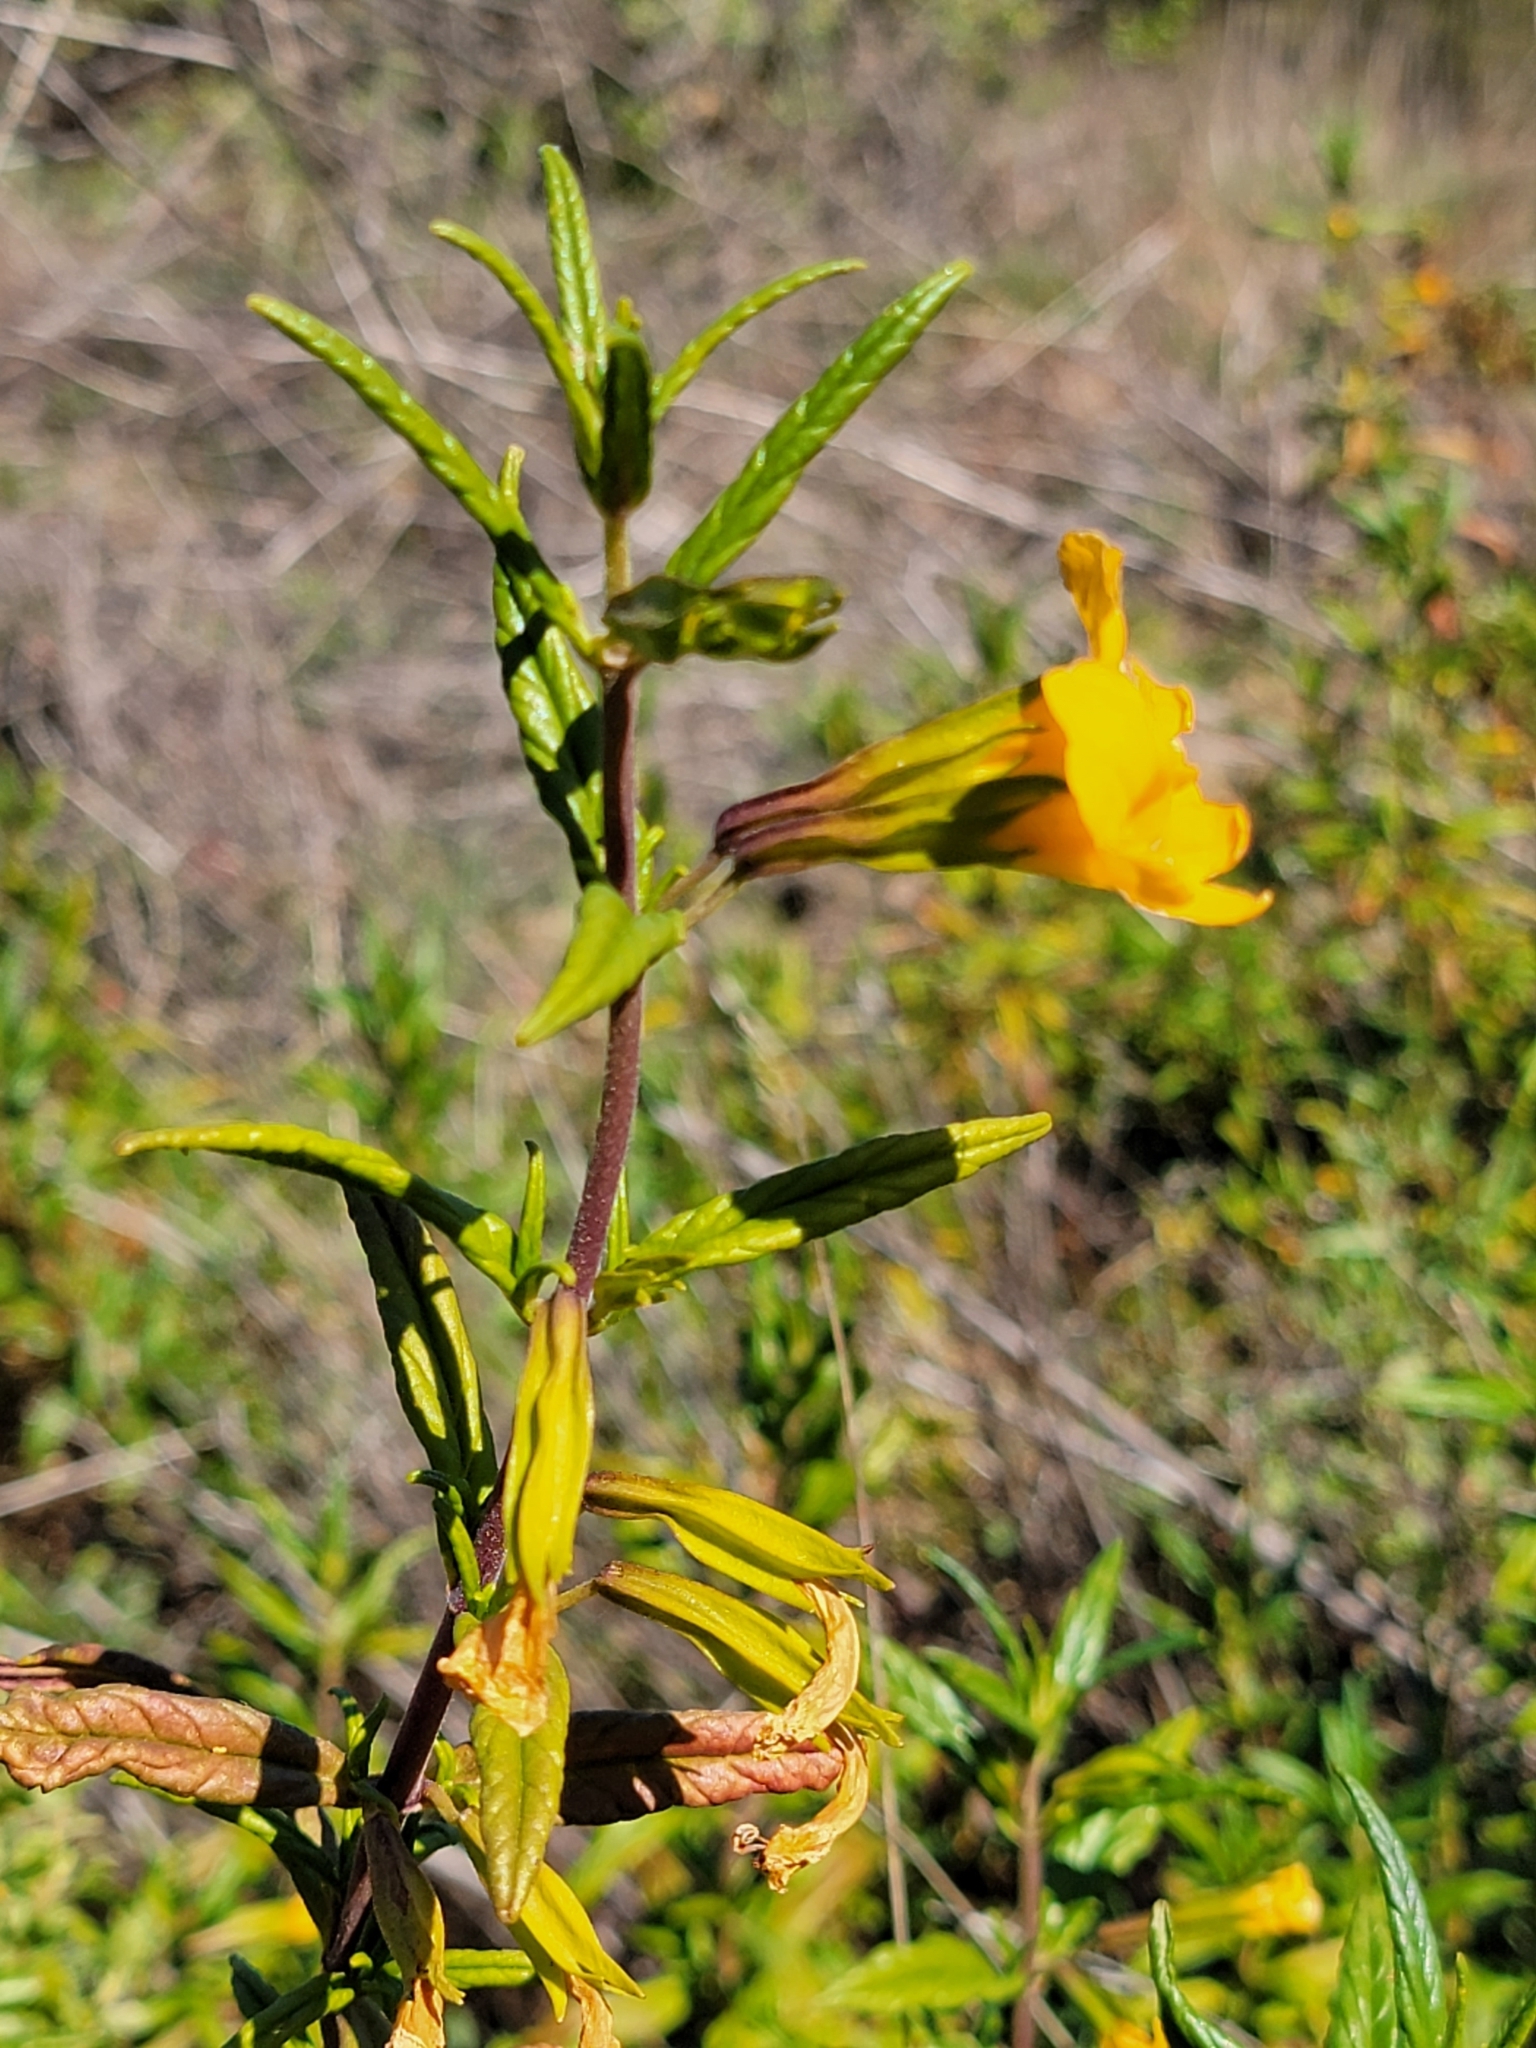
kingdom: Plantae
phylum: Tracheophyta
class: Magnoliopsida
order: Lamiales
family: Phrymaceae
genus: Diplacus
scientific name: Diplacus aurantiacus
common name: Bush monkey-flower
